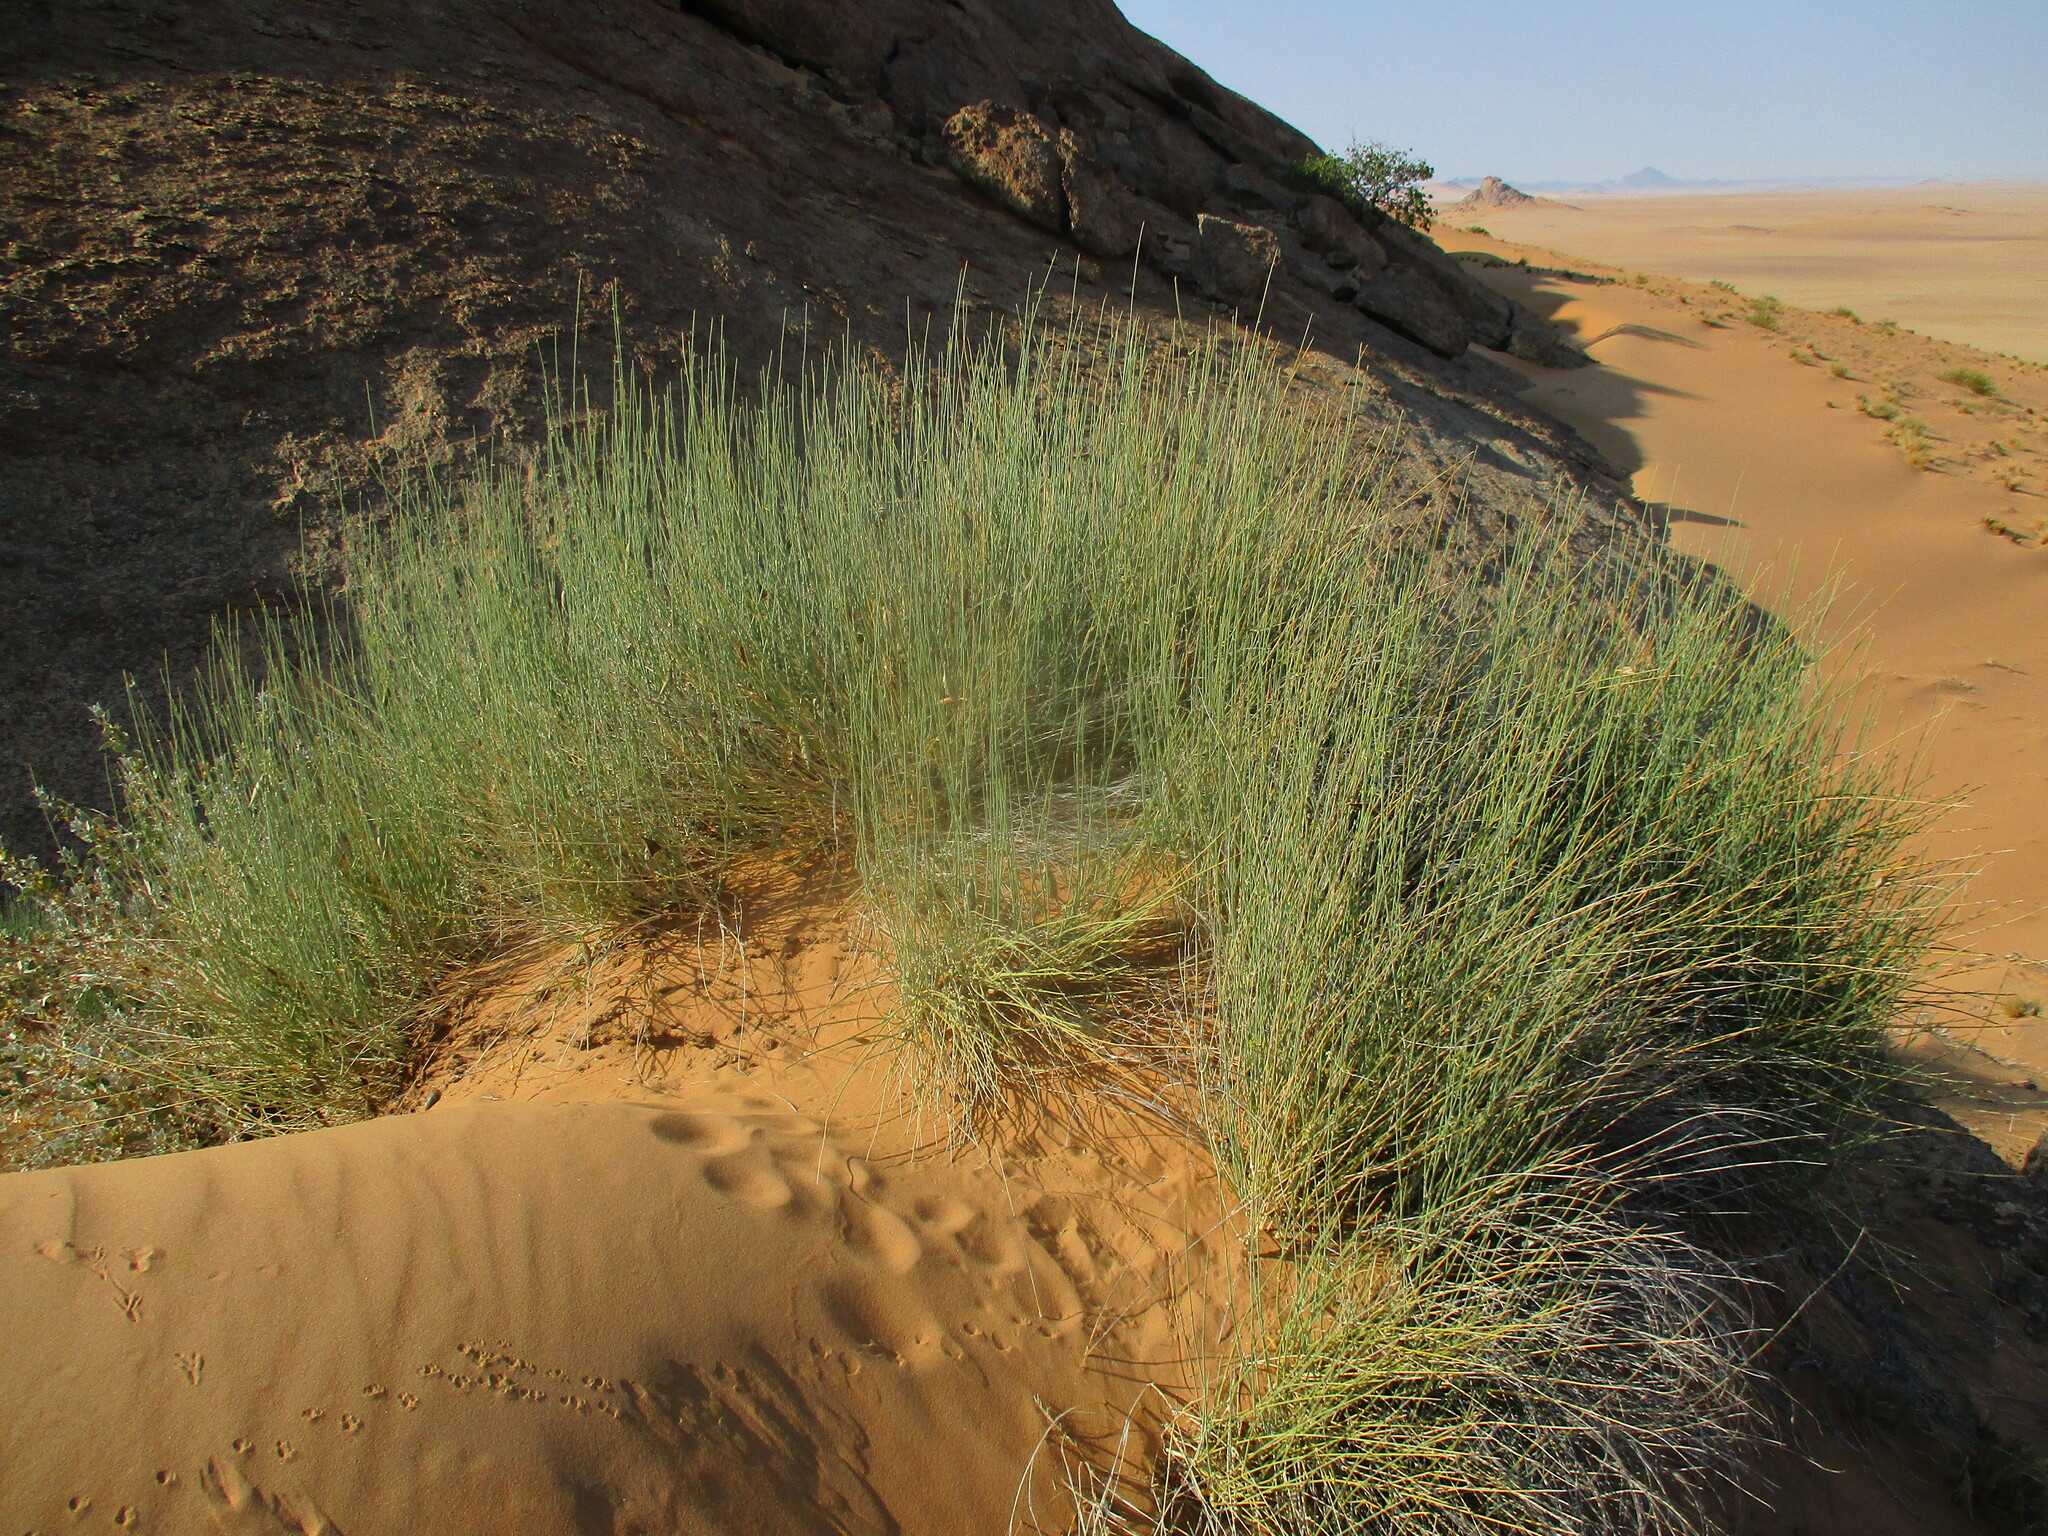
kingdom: Plantae
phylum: Tracheophyta
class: Magnoliopsida
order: Gentianales
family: Apocynaceae
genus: Orthanthera
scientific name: Orthanthera albida
